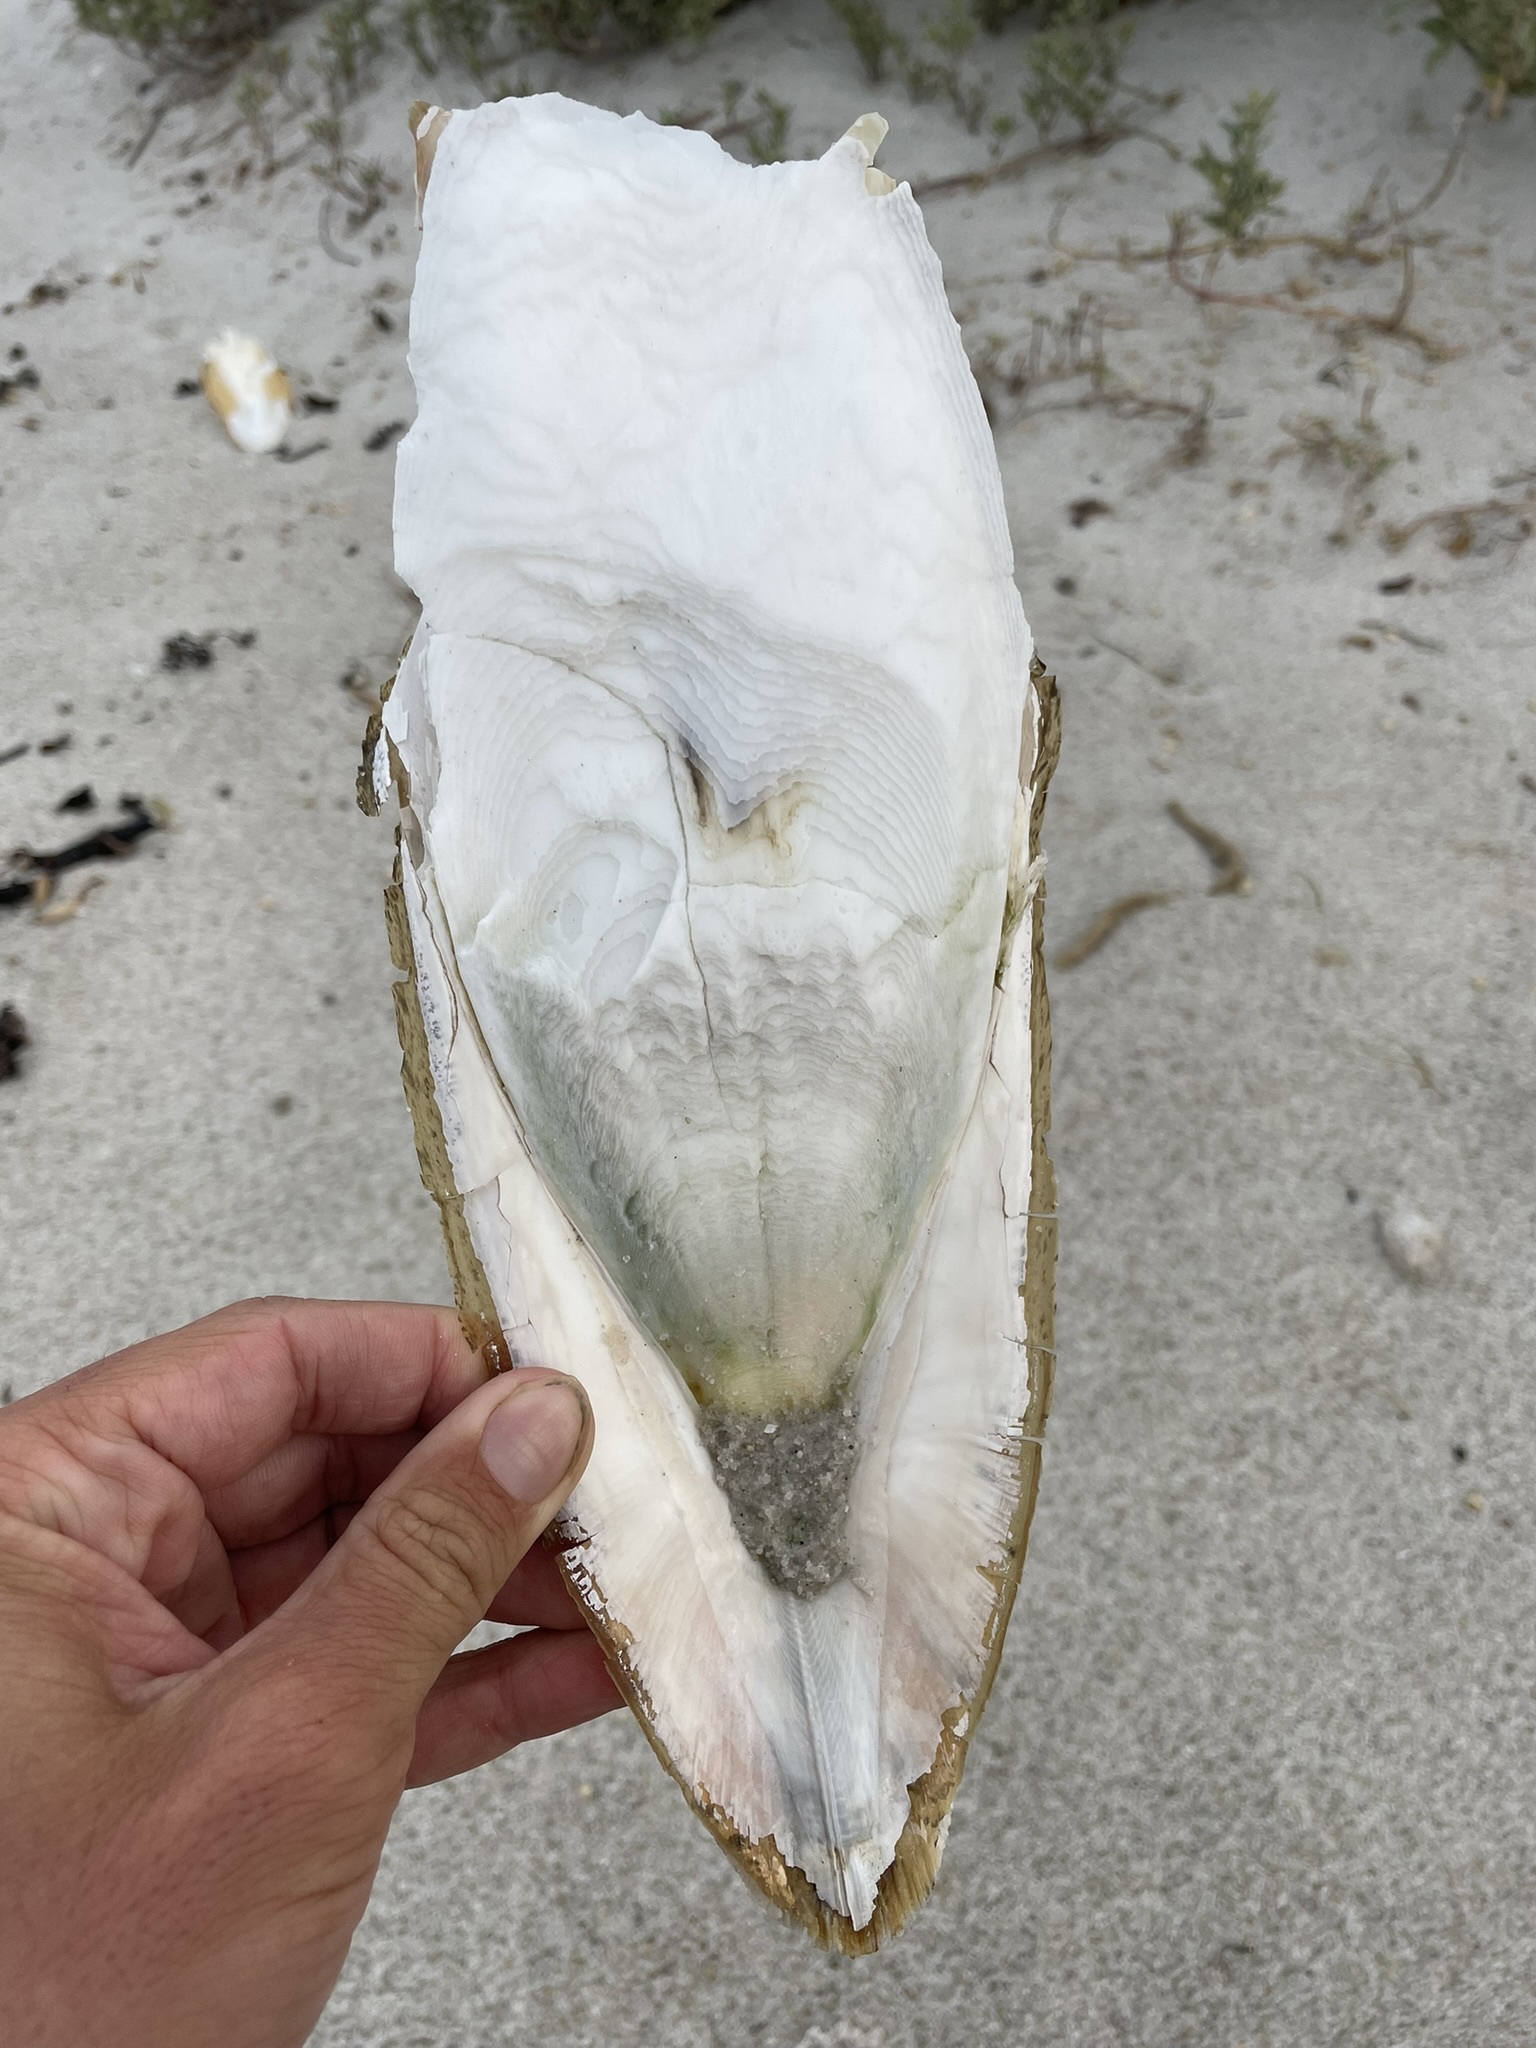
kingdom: Animalia
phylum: Mollusca
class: Cephalopoda
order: Sepiida
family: Sepiidae
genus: Ascarosepion
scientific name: Ascarosepion apama
